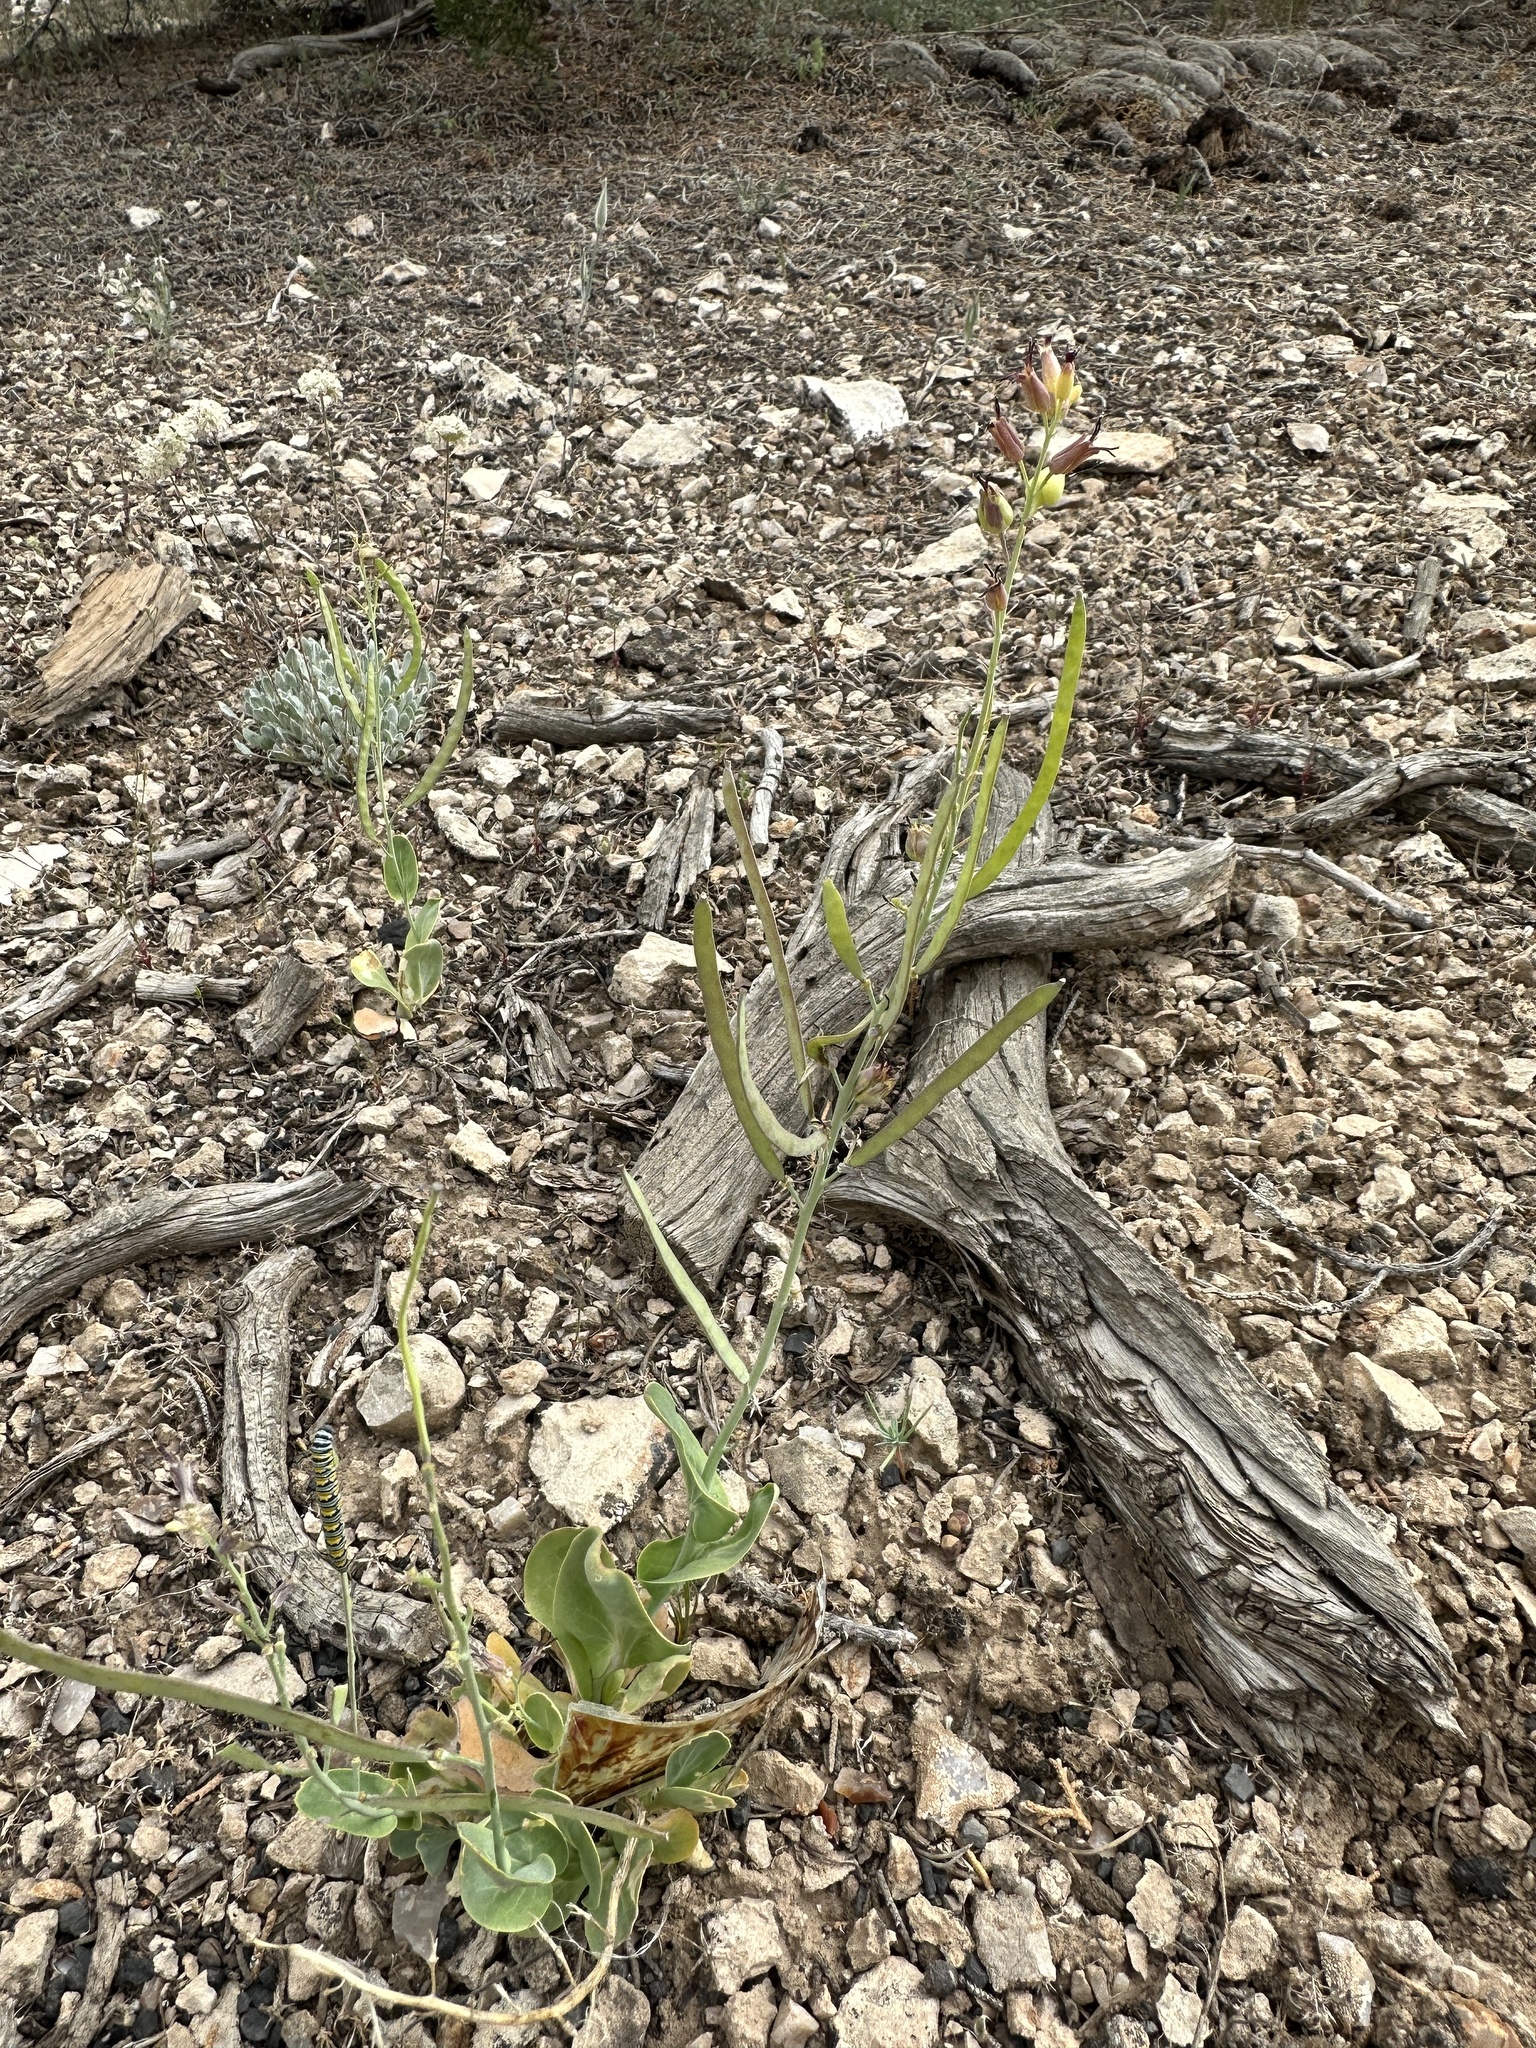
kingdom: Plantae
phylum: Tracheophyta
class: Magnoliopsida
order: Brassicales
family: Brassicaceae
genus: Streptanthus
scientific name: Streptanthus cordatus
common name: Heart-leaf jewel-flower
